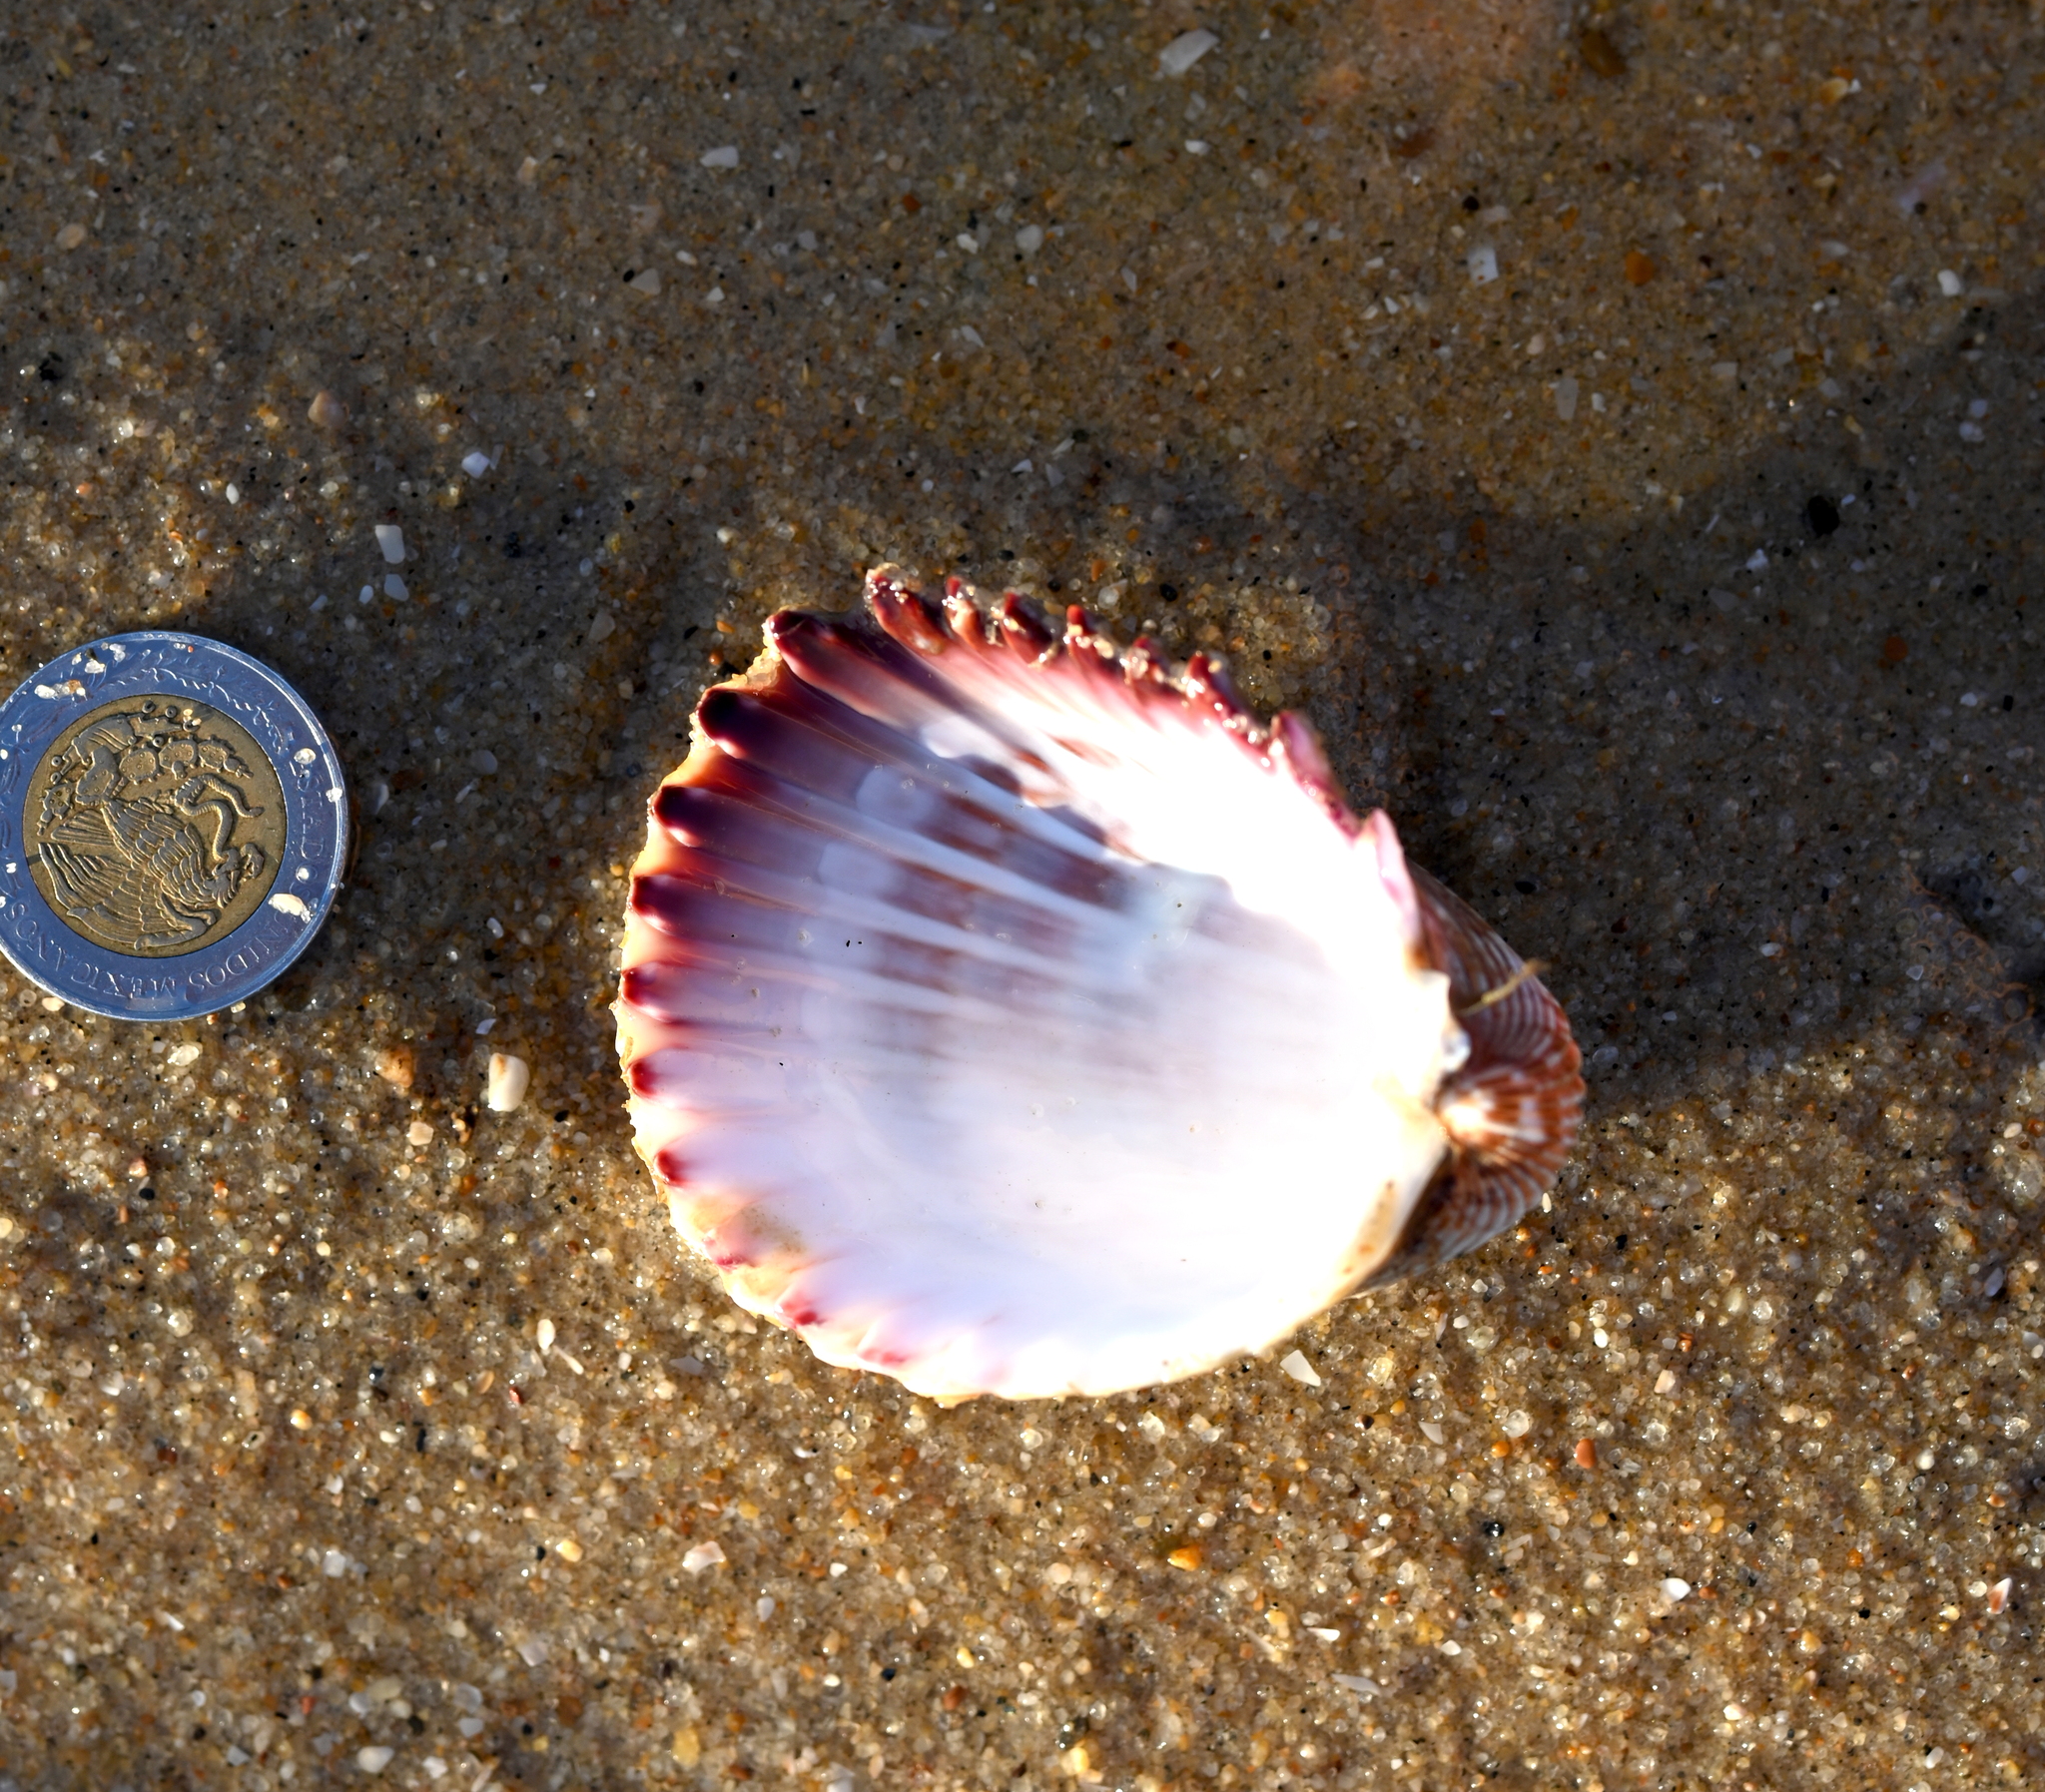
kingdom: Animalia
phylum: Mollusca
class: Bivalvia
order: Cardiida
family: Cardiidae
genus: Trachycardium
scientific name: Trachycardium procerum
